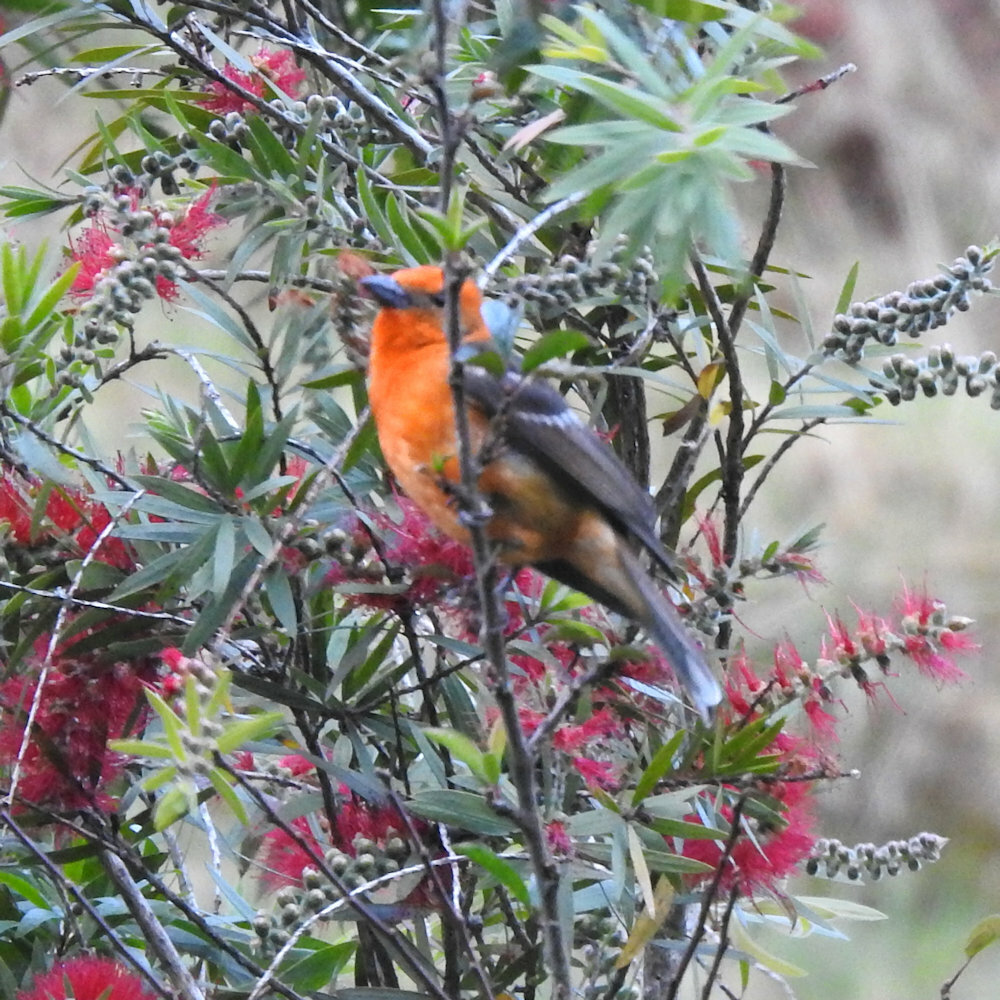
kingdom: Animalia
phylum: Chordata
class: Aves
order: Passeriformes
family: Cardinalidae
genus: Piranga
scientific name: Piranga bidentata
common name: Flame-colored tanager
